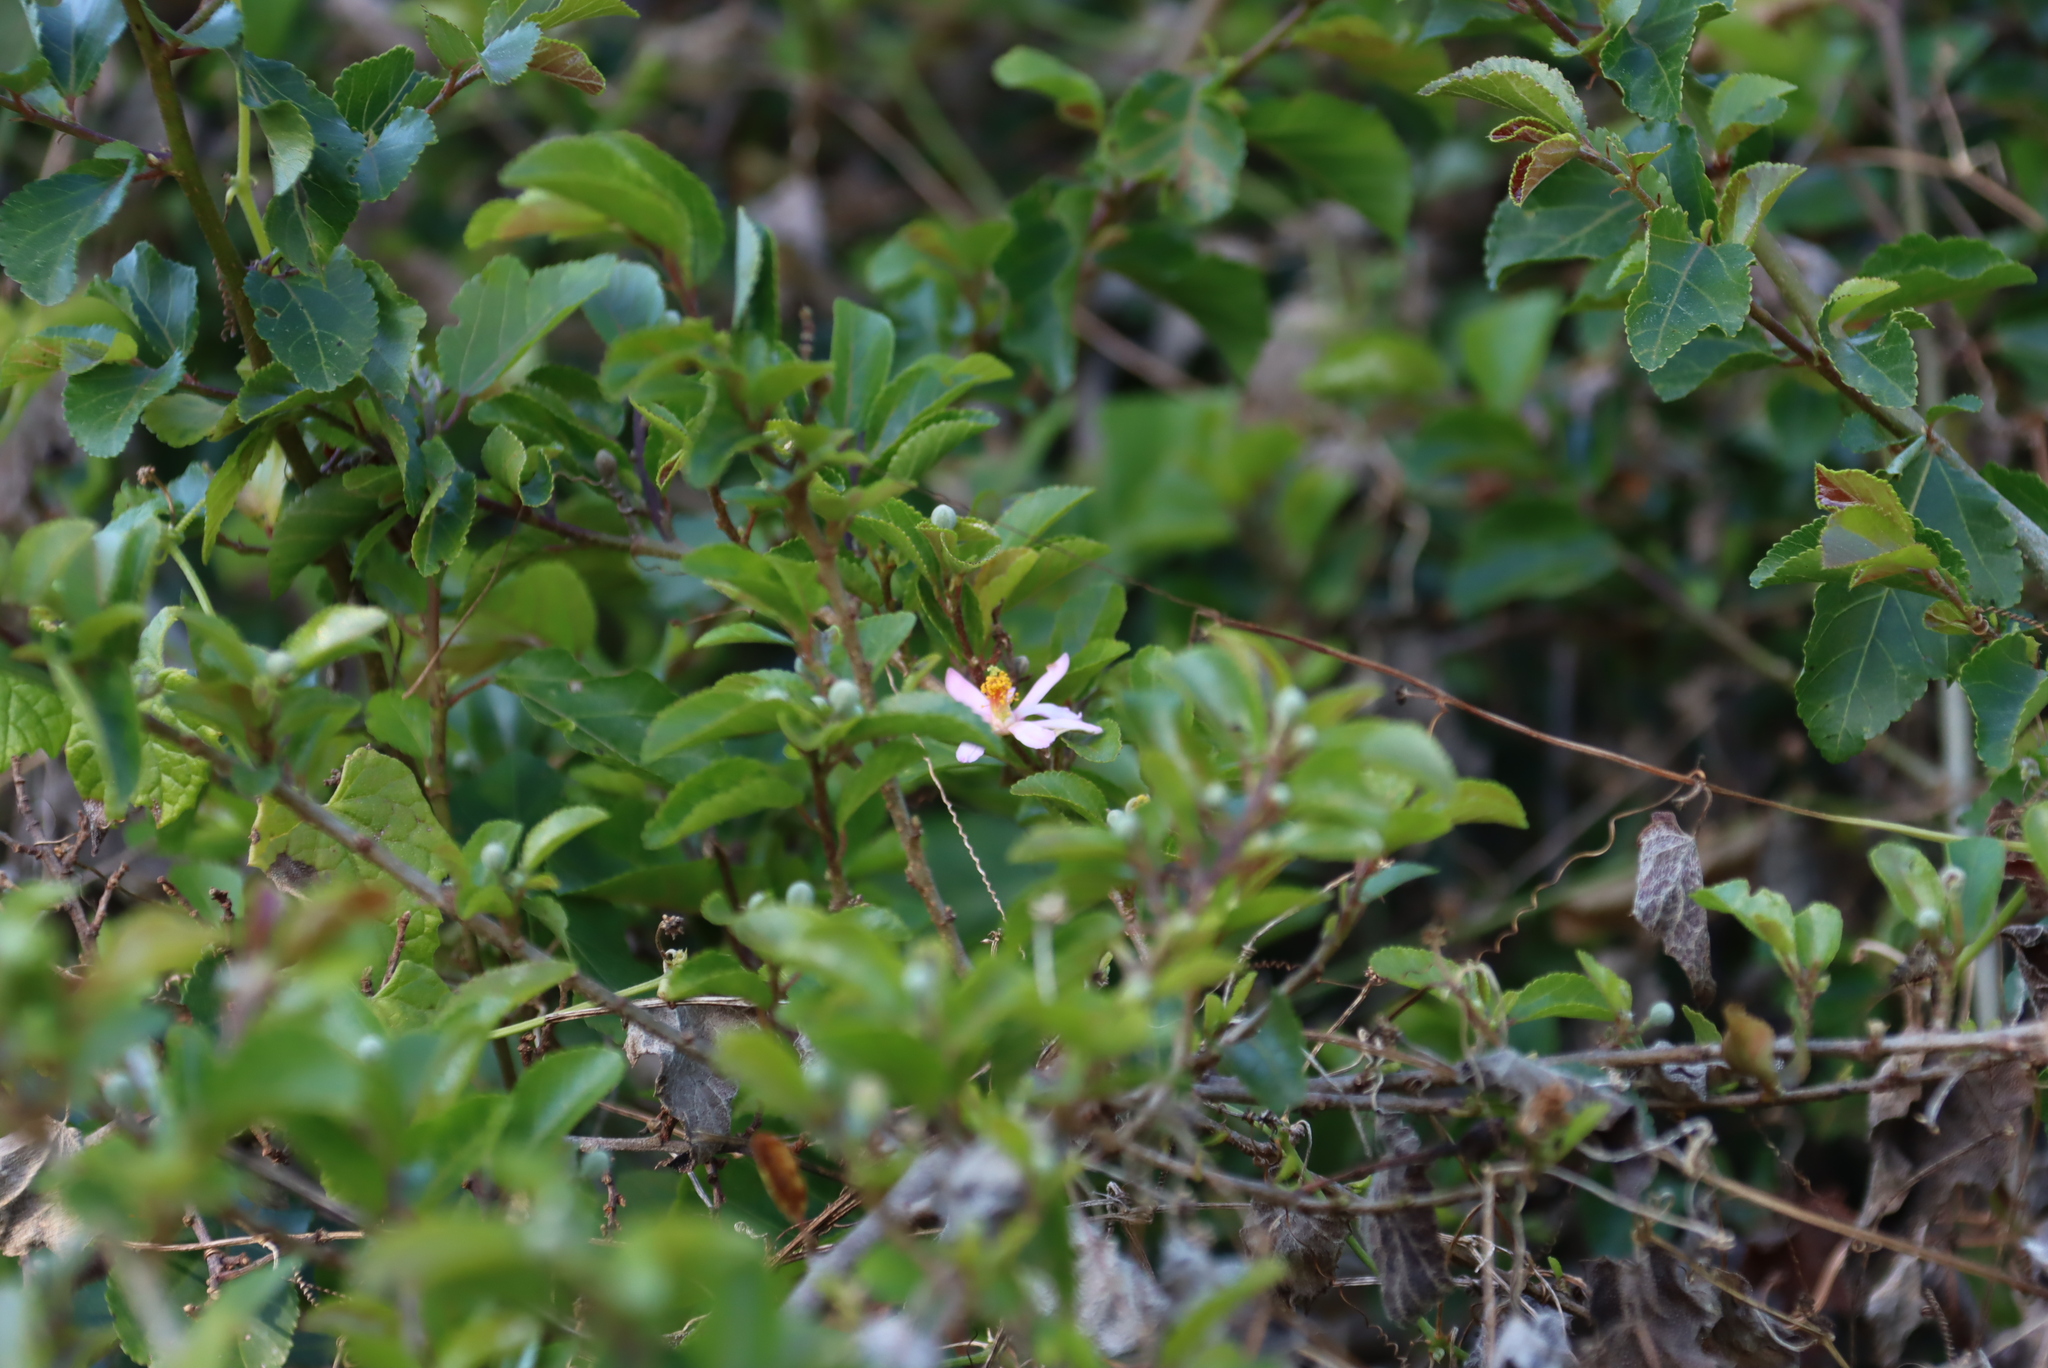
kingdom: Plantae
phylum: Tracheophyta
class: Magnoliopsida
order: Malvales
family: Malvaceae
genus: Grewia
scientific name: Grewia occidentalis
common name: Crossberry
